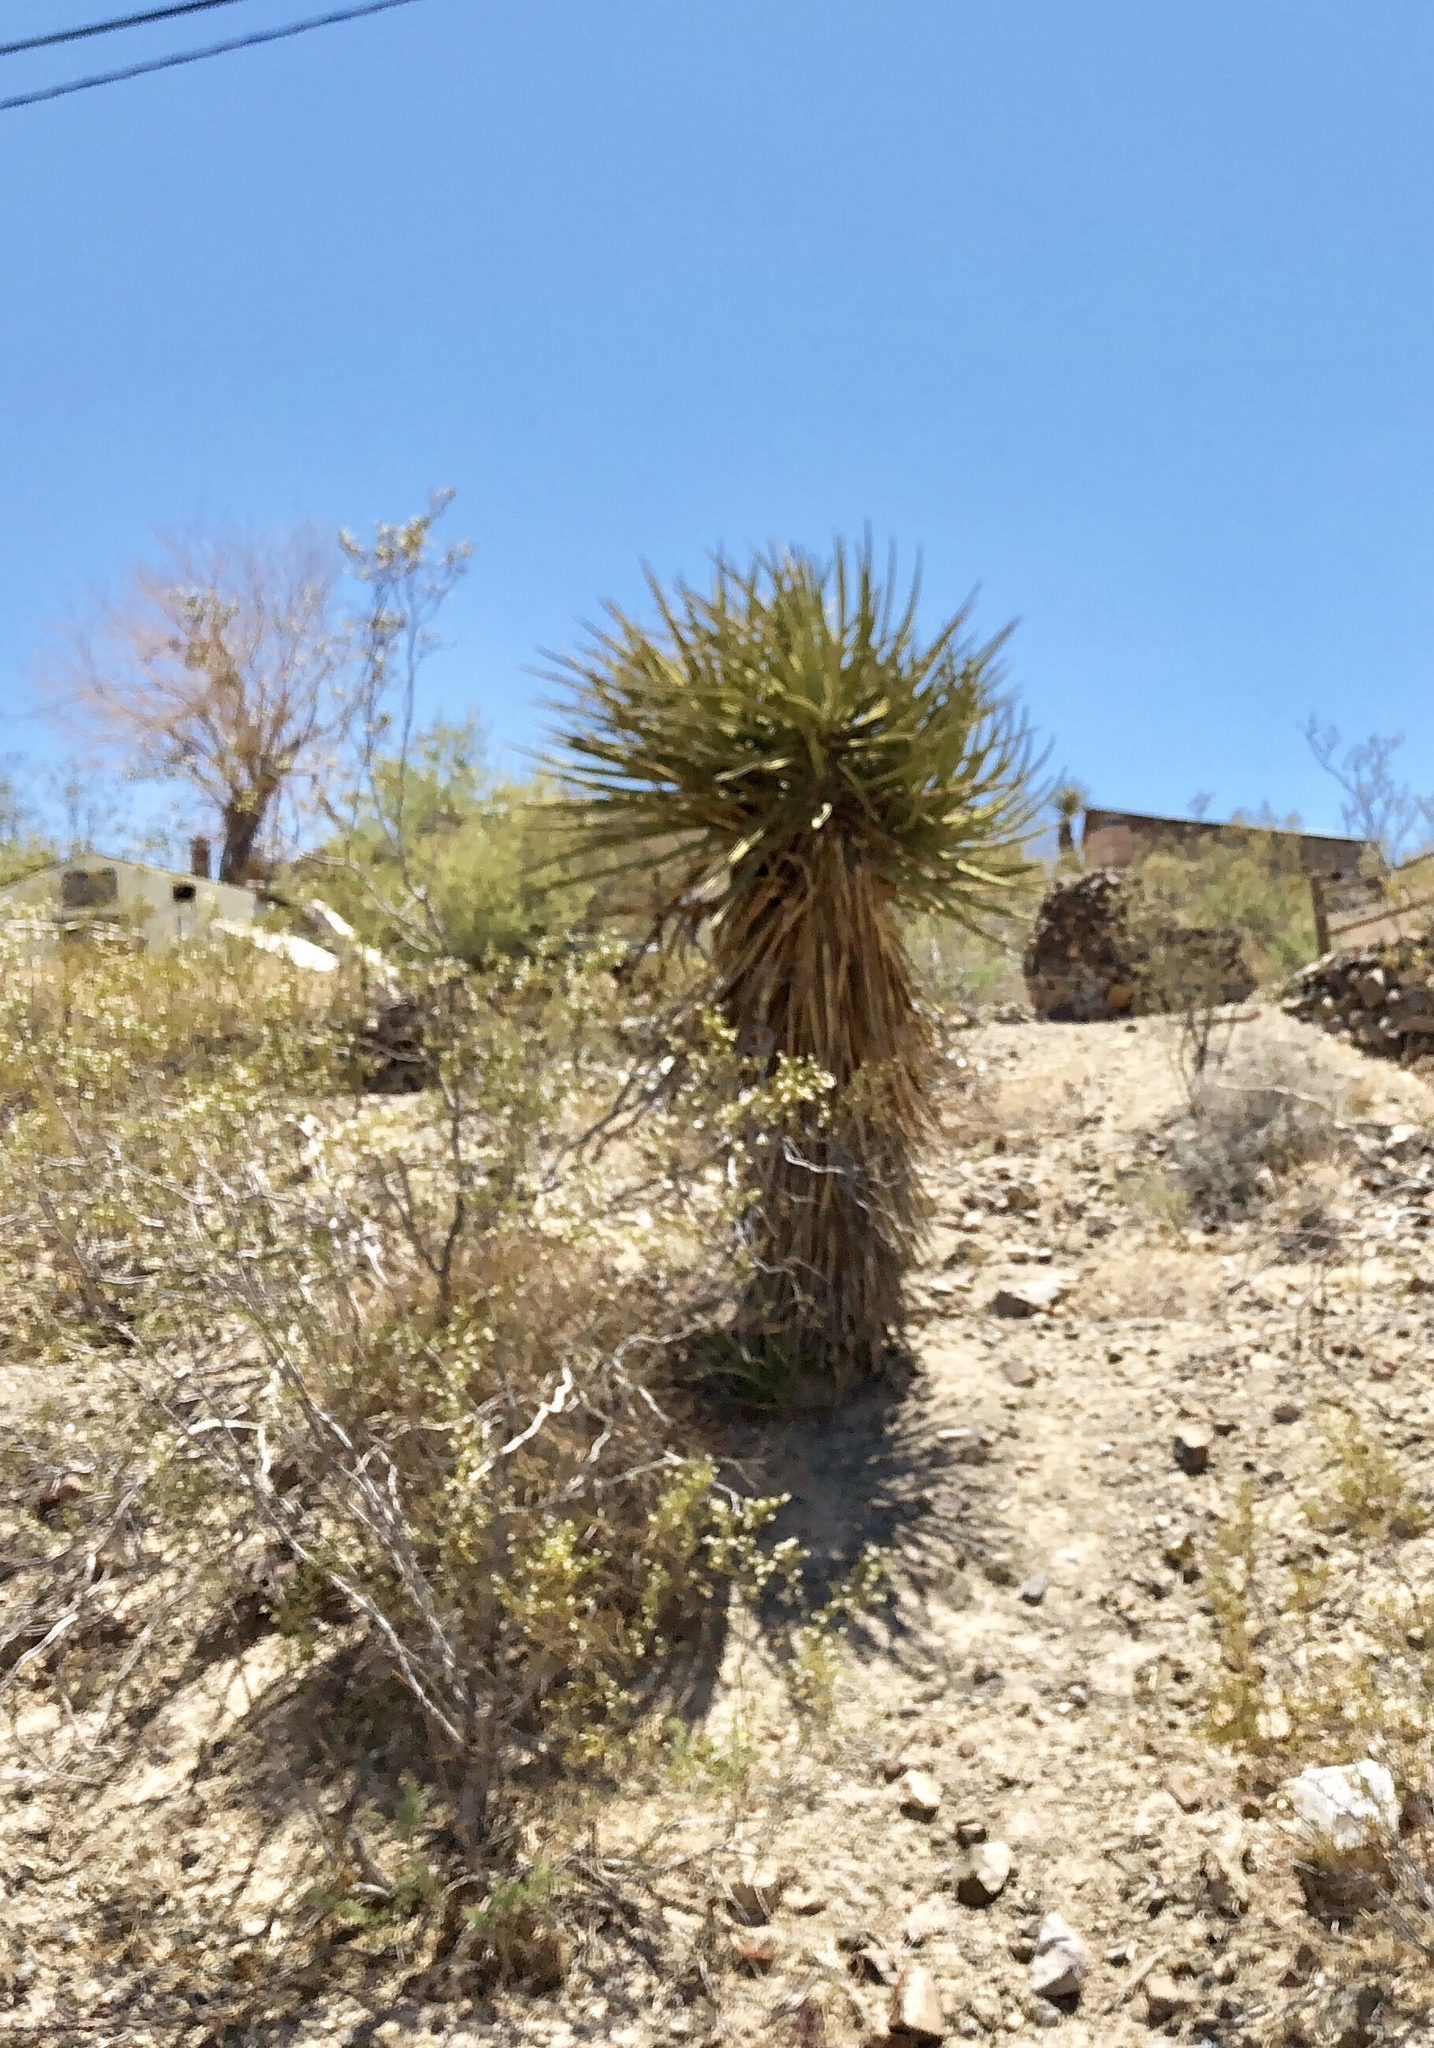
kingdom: Plantae
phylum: Tracheophyta
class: Liliopsida
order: Asparagales
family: Asparagaceae
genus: Yucca
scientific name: Yucca schidigera
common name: Mojave yucca
